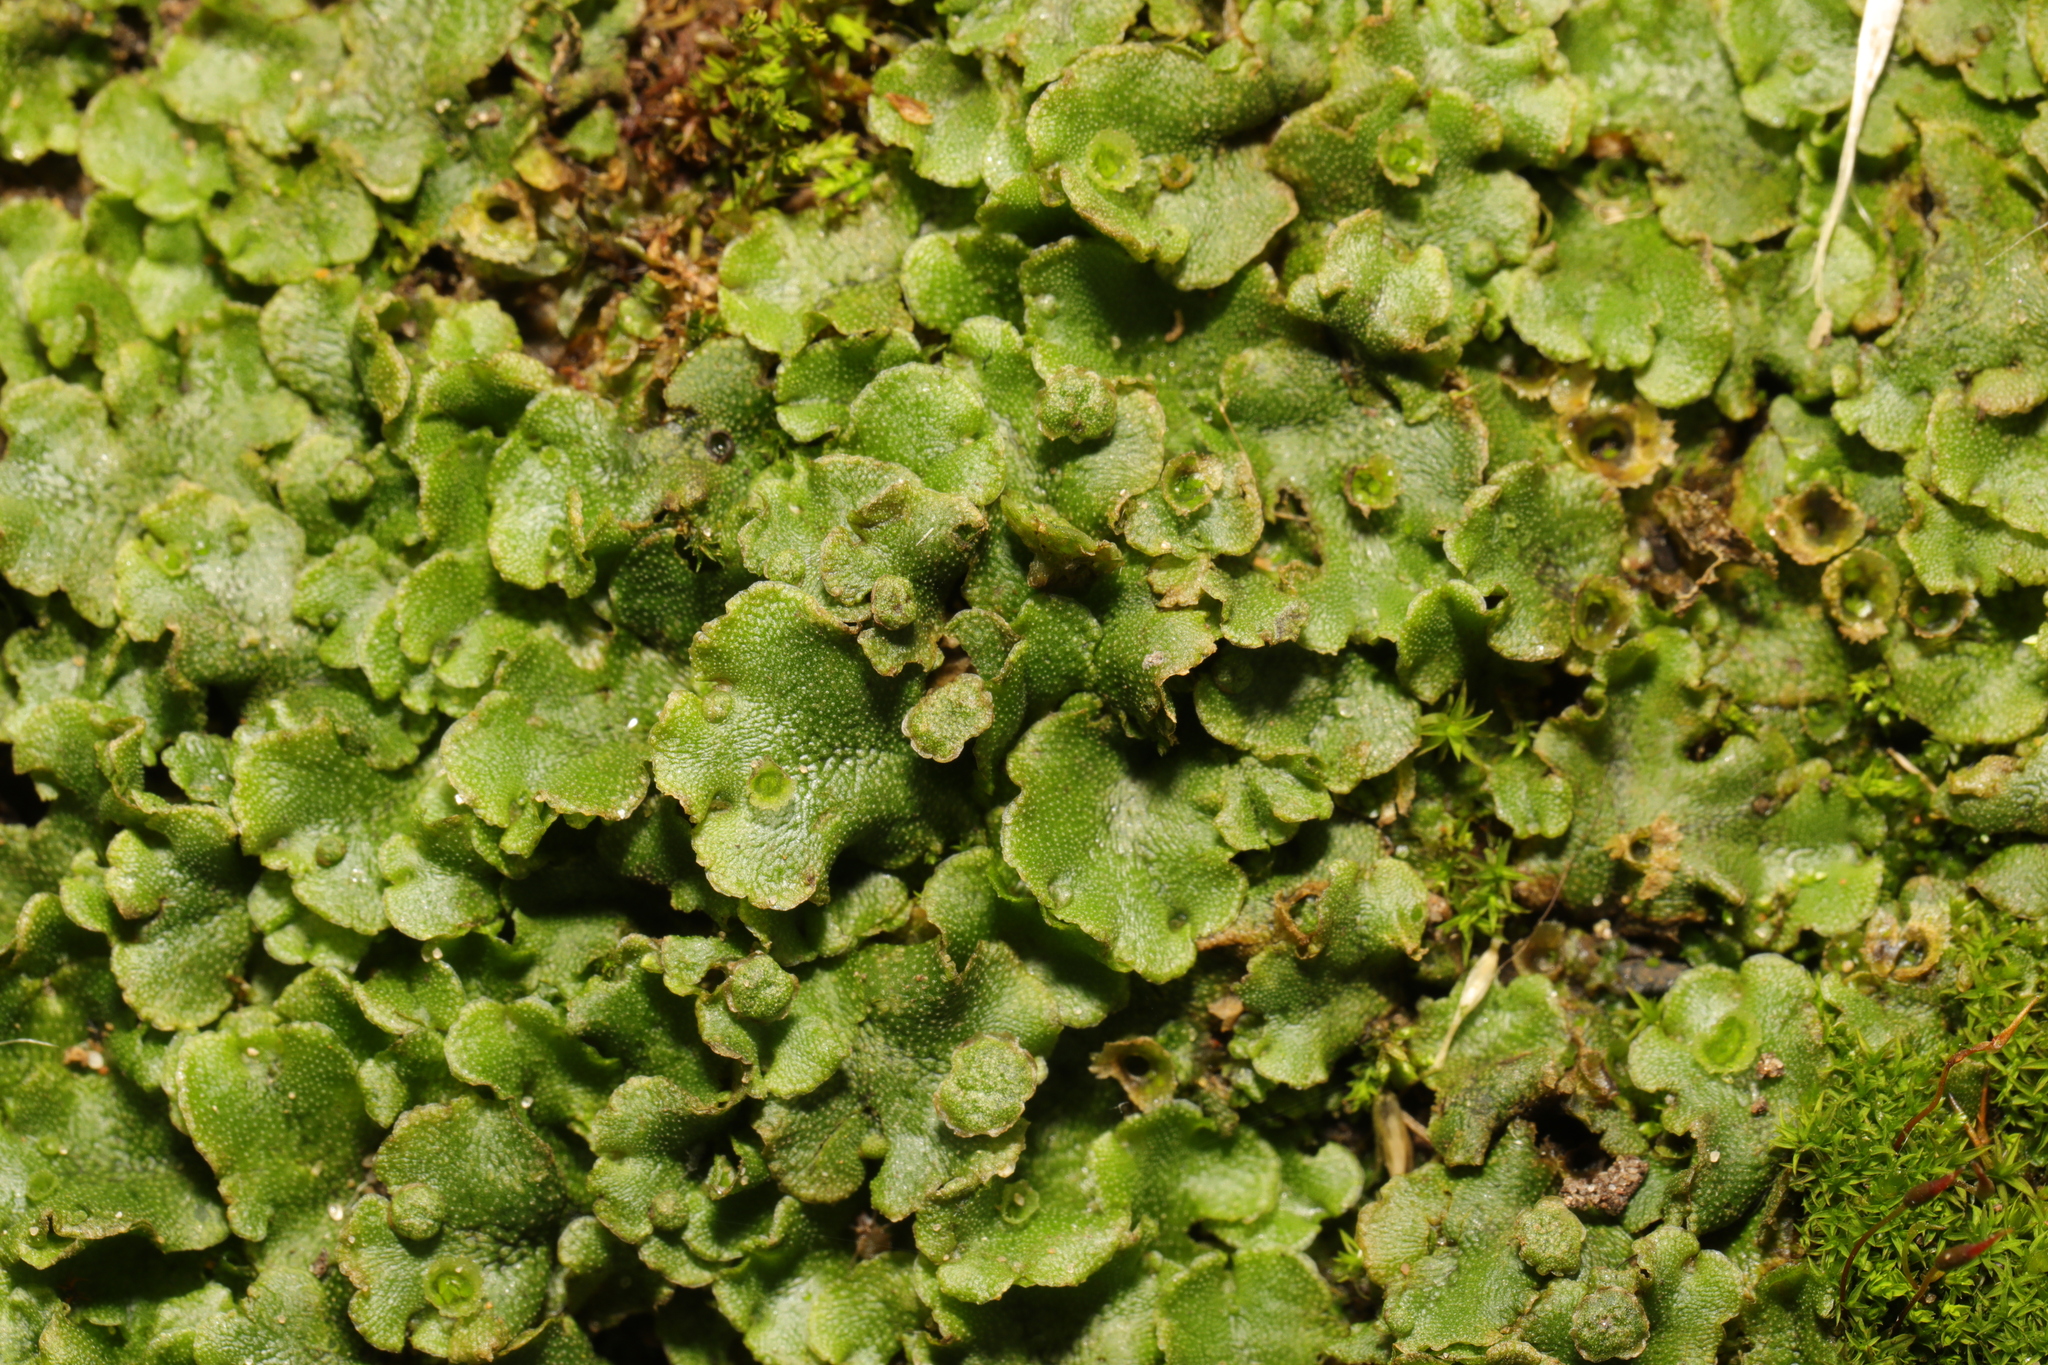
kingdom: Plantae
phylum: Marchantiophyta
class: Marchantiopsida
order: Marchantiales
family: Marchantiaceae
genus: Marchantia
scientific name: Marchantia polymorpha
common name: Common liverwort
